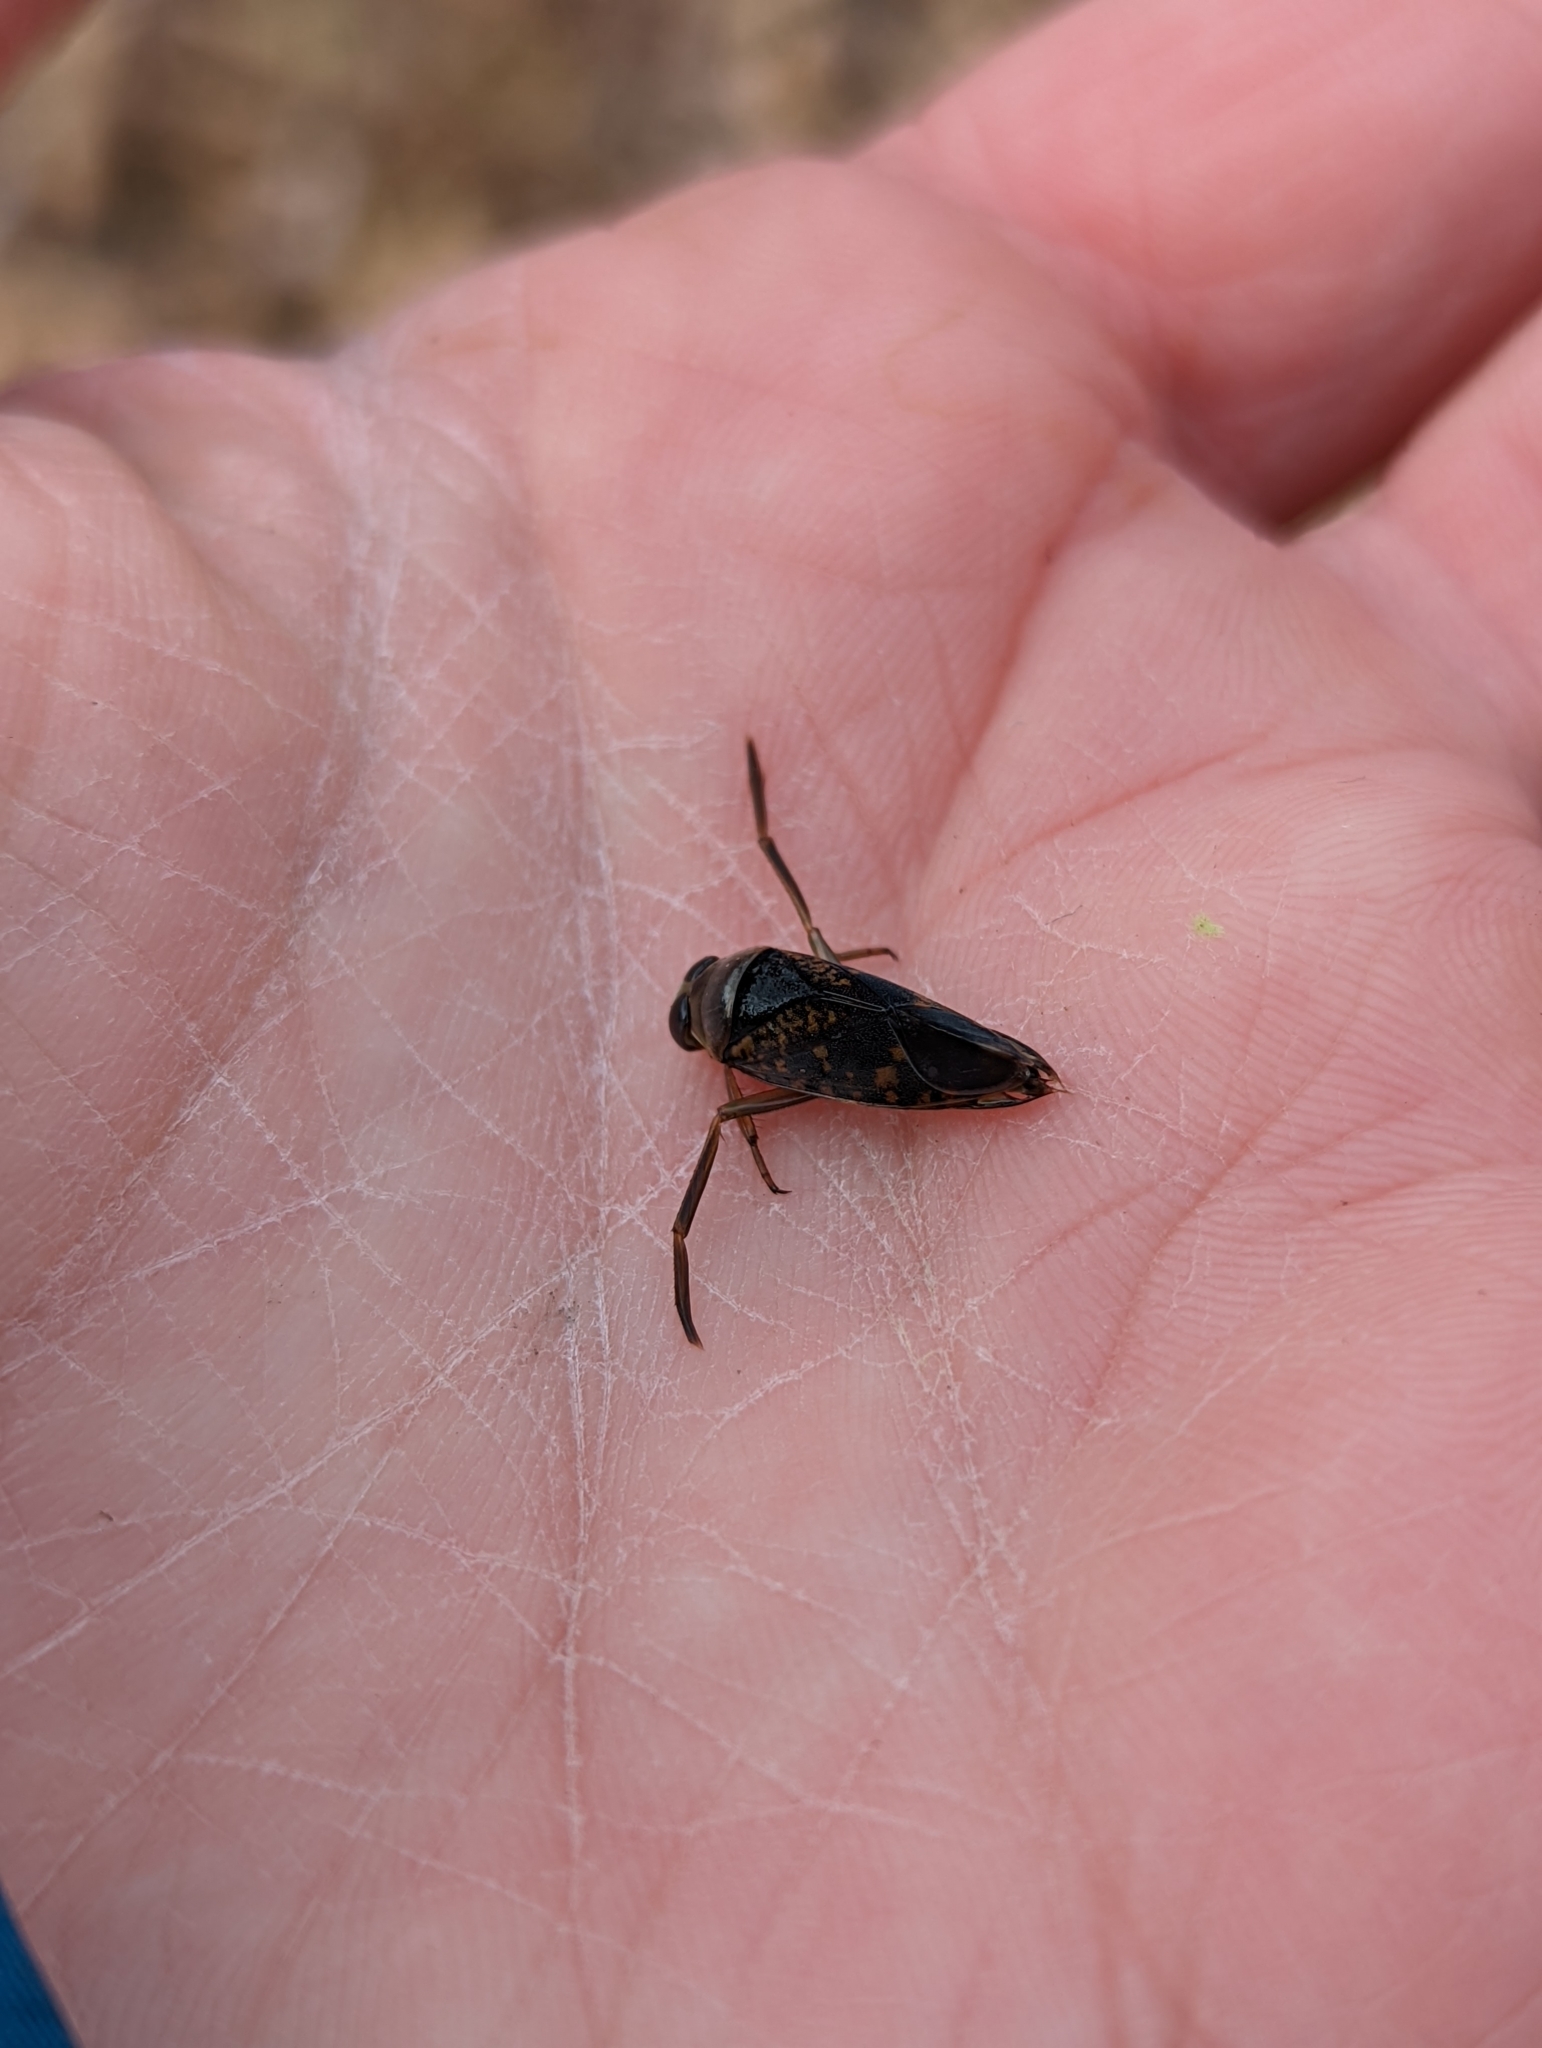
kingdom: Animalia
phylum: Arthropoda
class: Insecta
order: Hemiptera
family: Notonectidae
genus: Notonecta
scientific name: Notonecta irrorata
